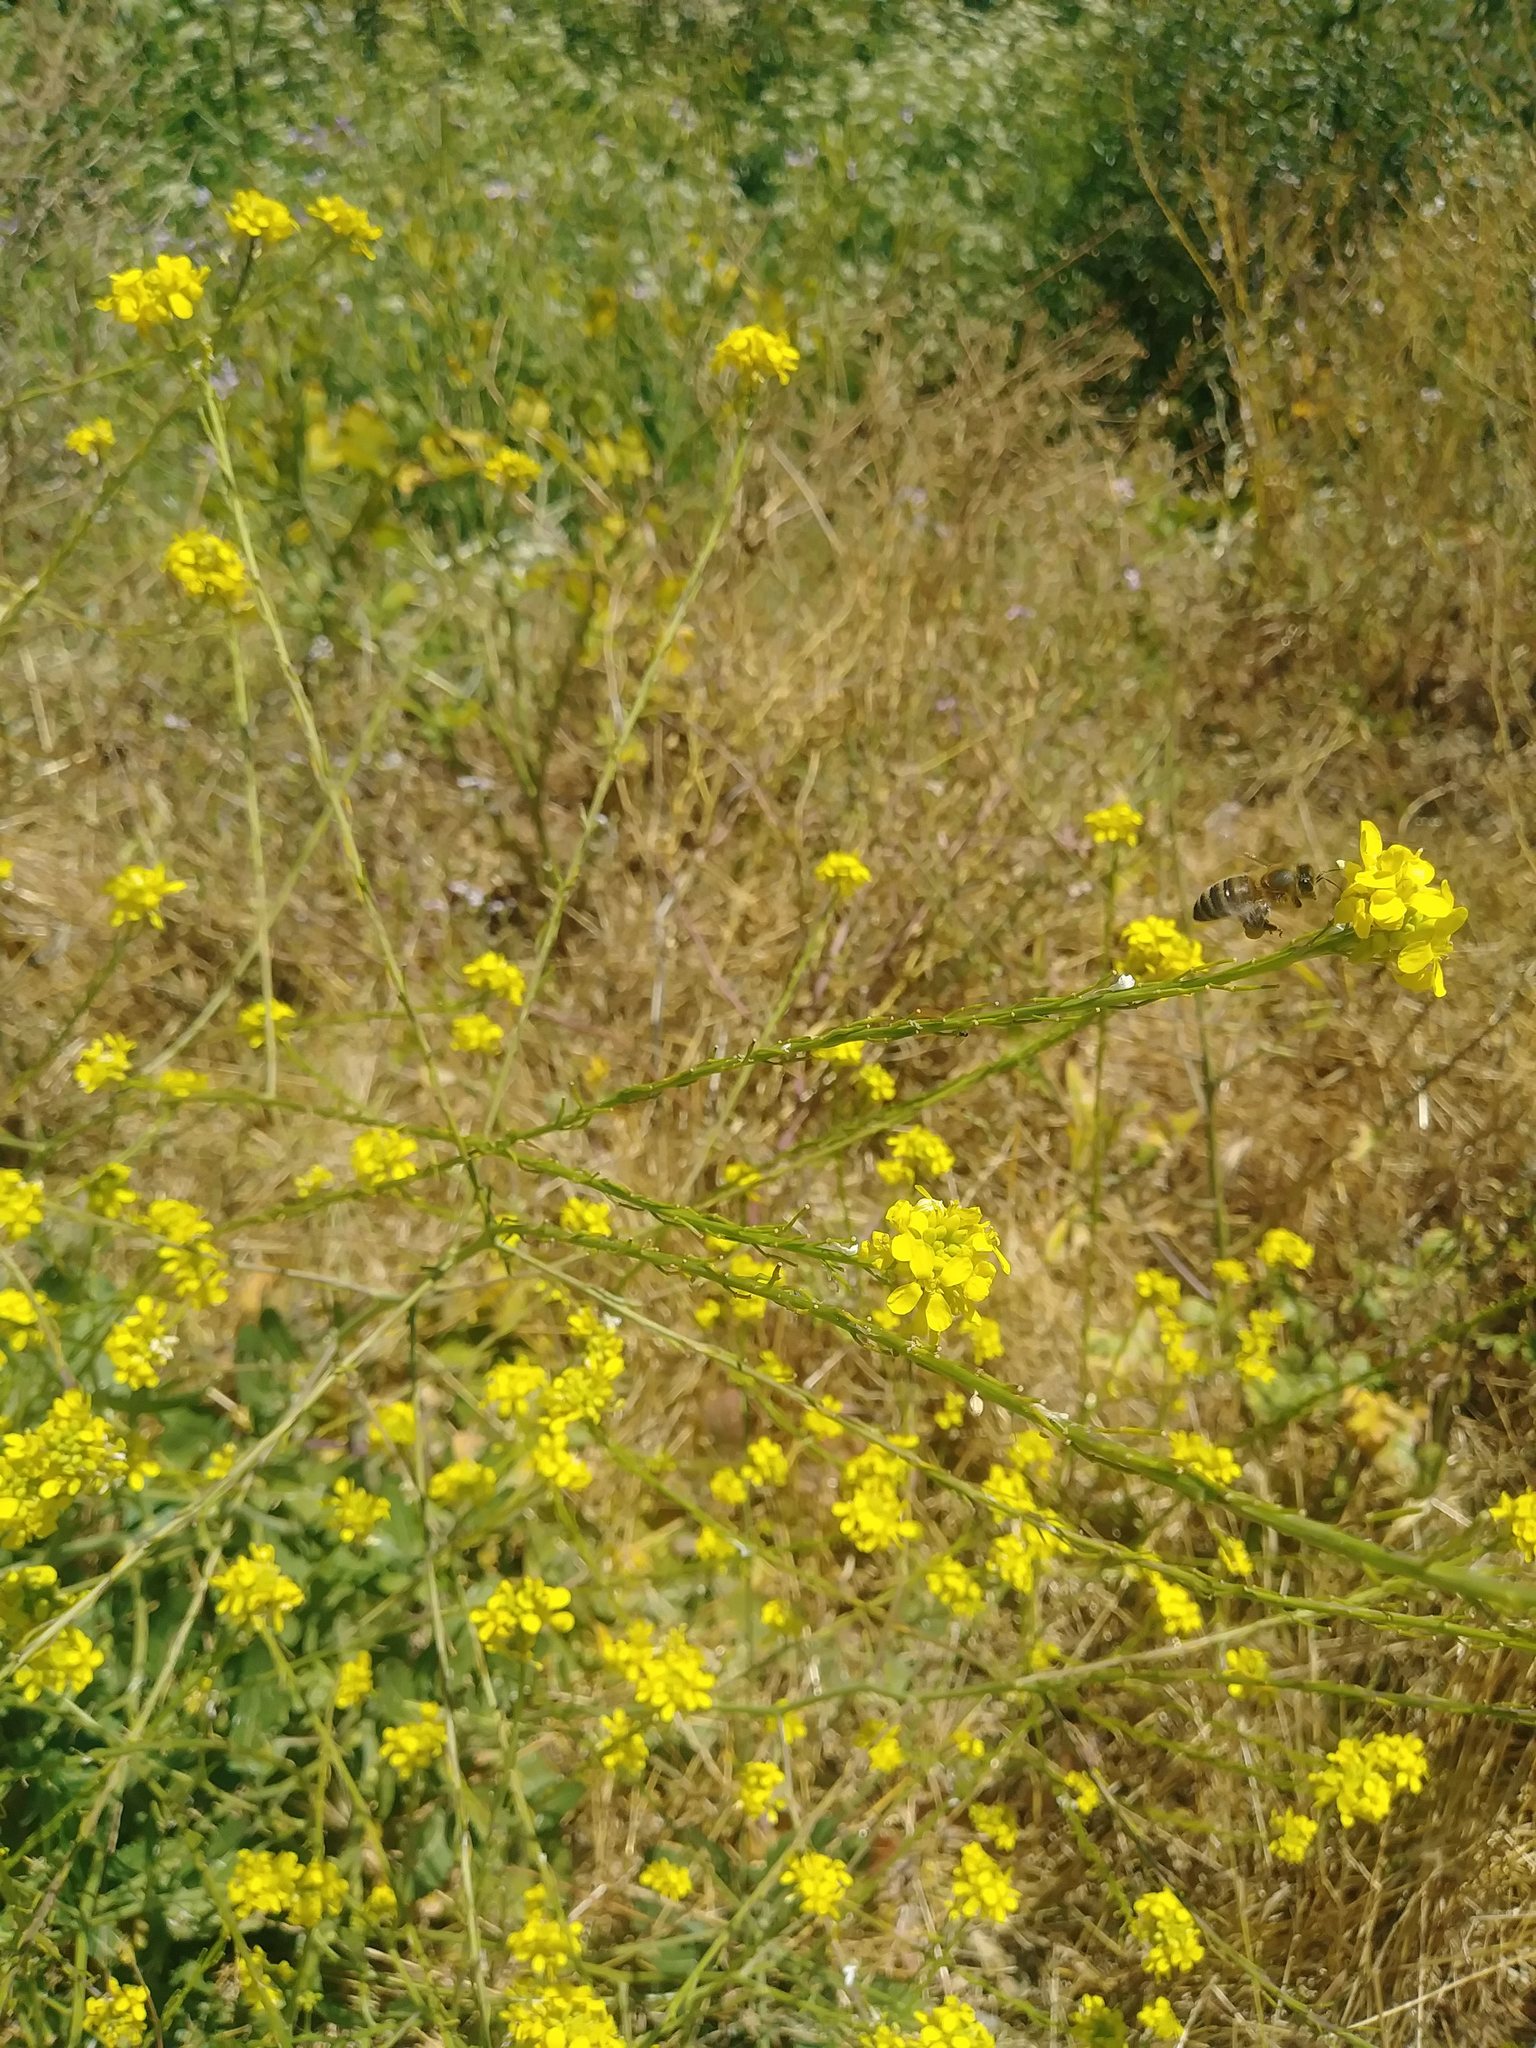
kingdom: Animalia
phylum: Arthropoda
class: Insecta
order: Hymenoptera
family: Apidae
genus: Apis
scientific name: Apis mellifera
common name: Honey bee
